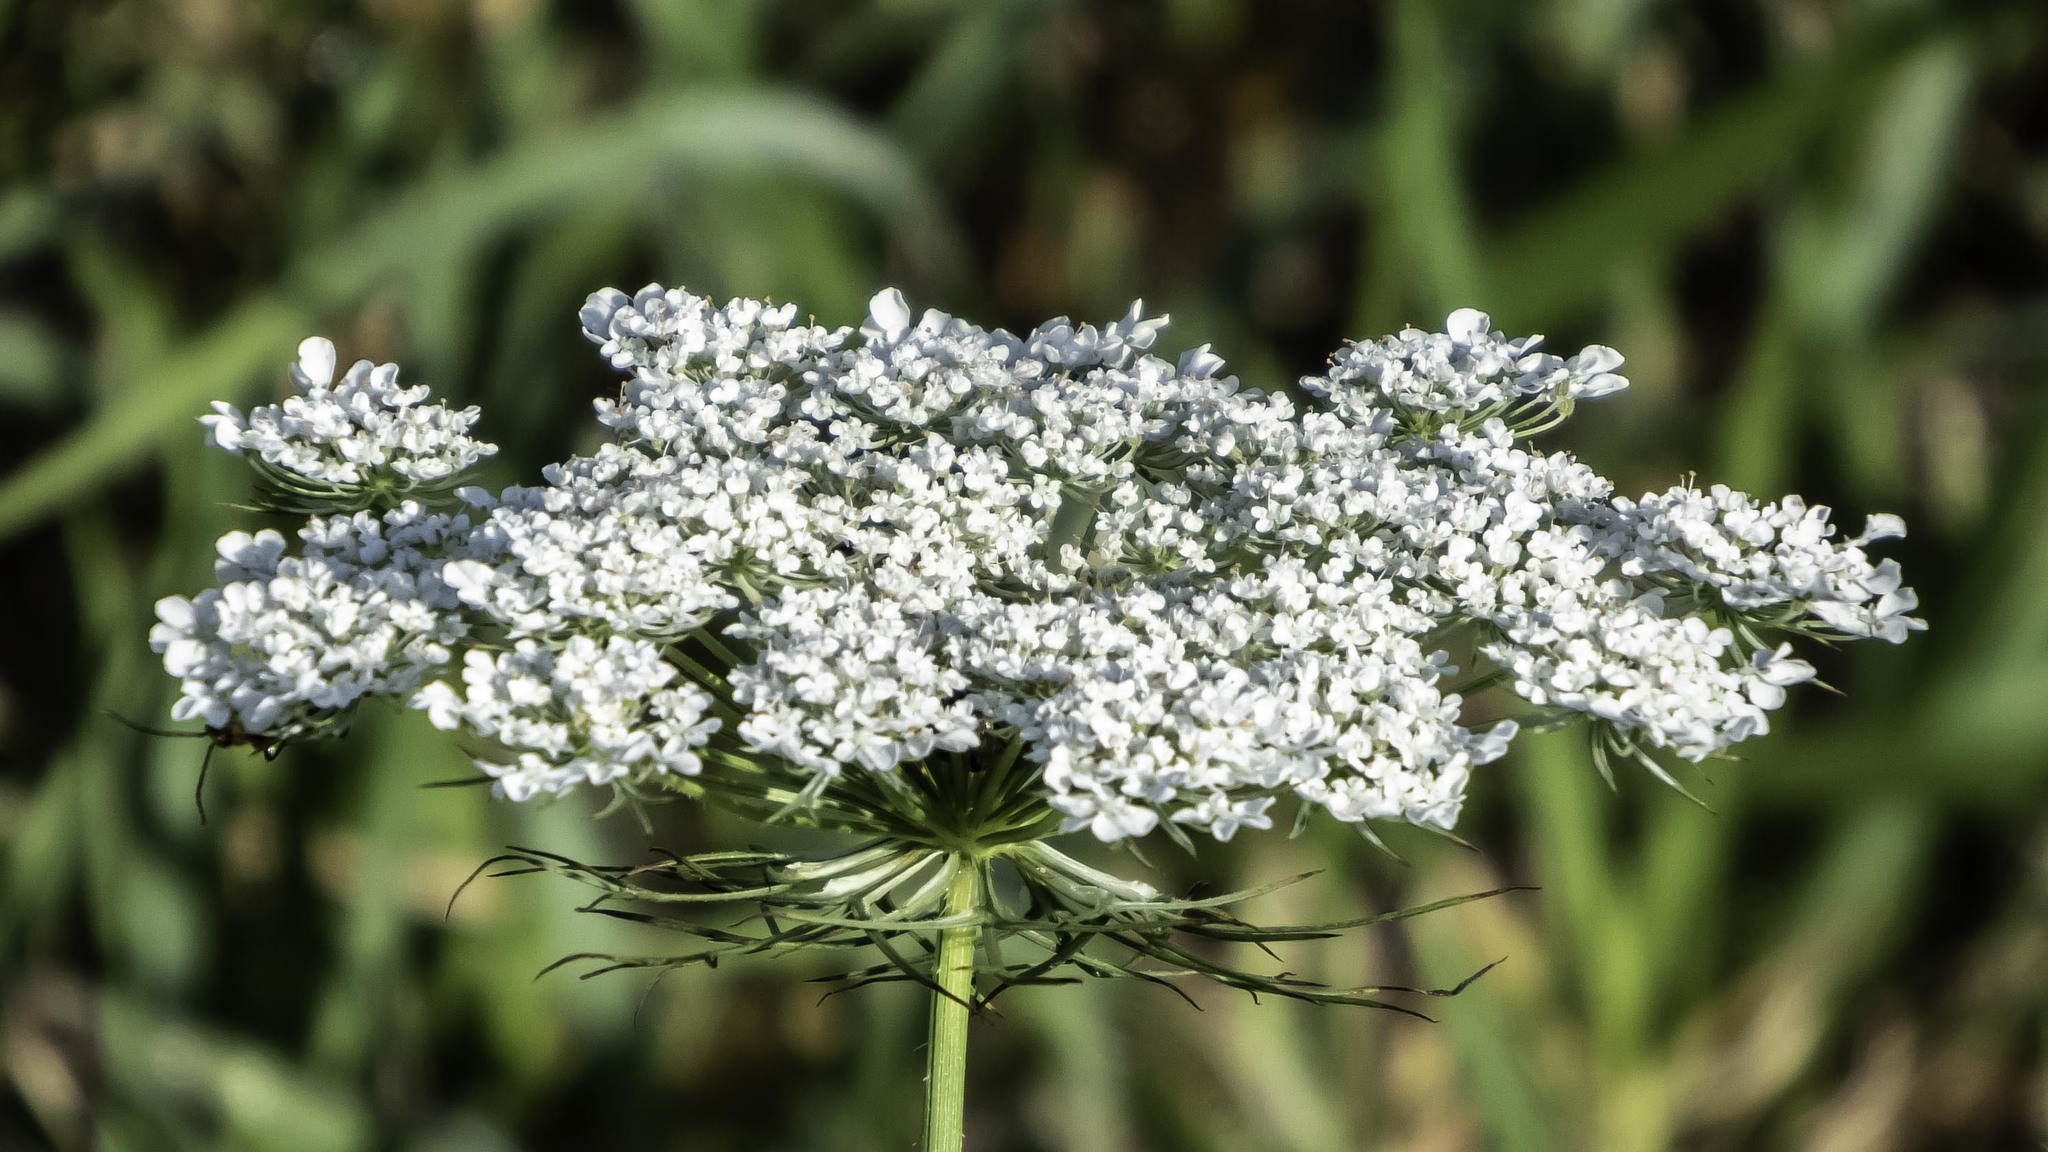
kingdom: Plantae
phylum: Tracheophyta
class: Magnoliopsida
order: Apiales
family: Apiaceae
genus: Daucus
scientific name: Daucus carota
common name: Wild carrot
